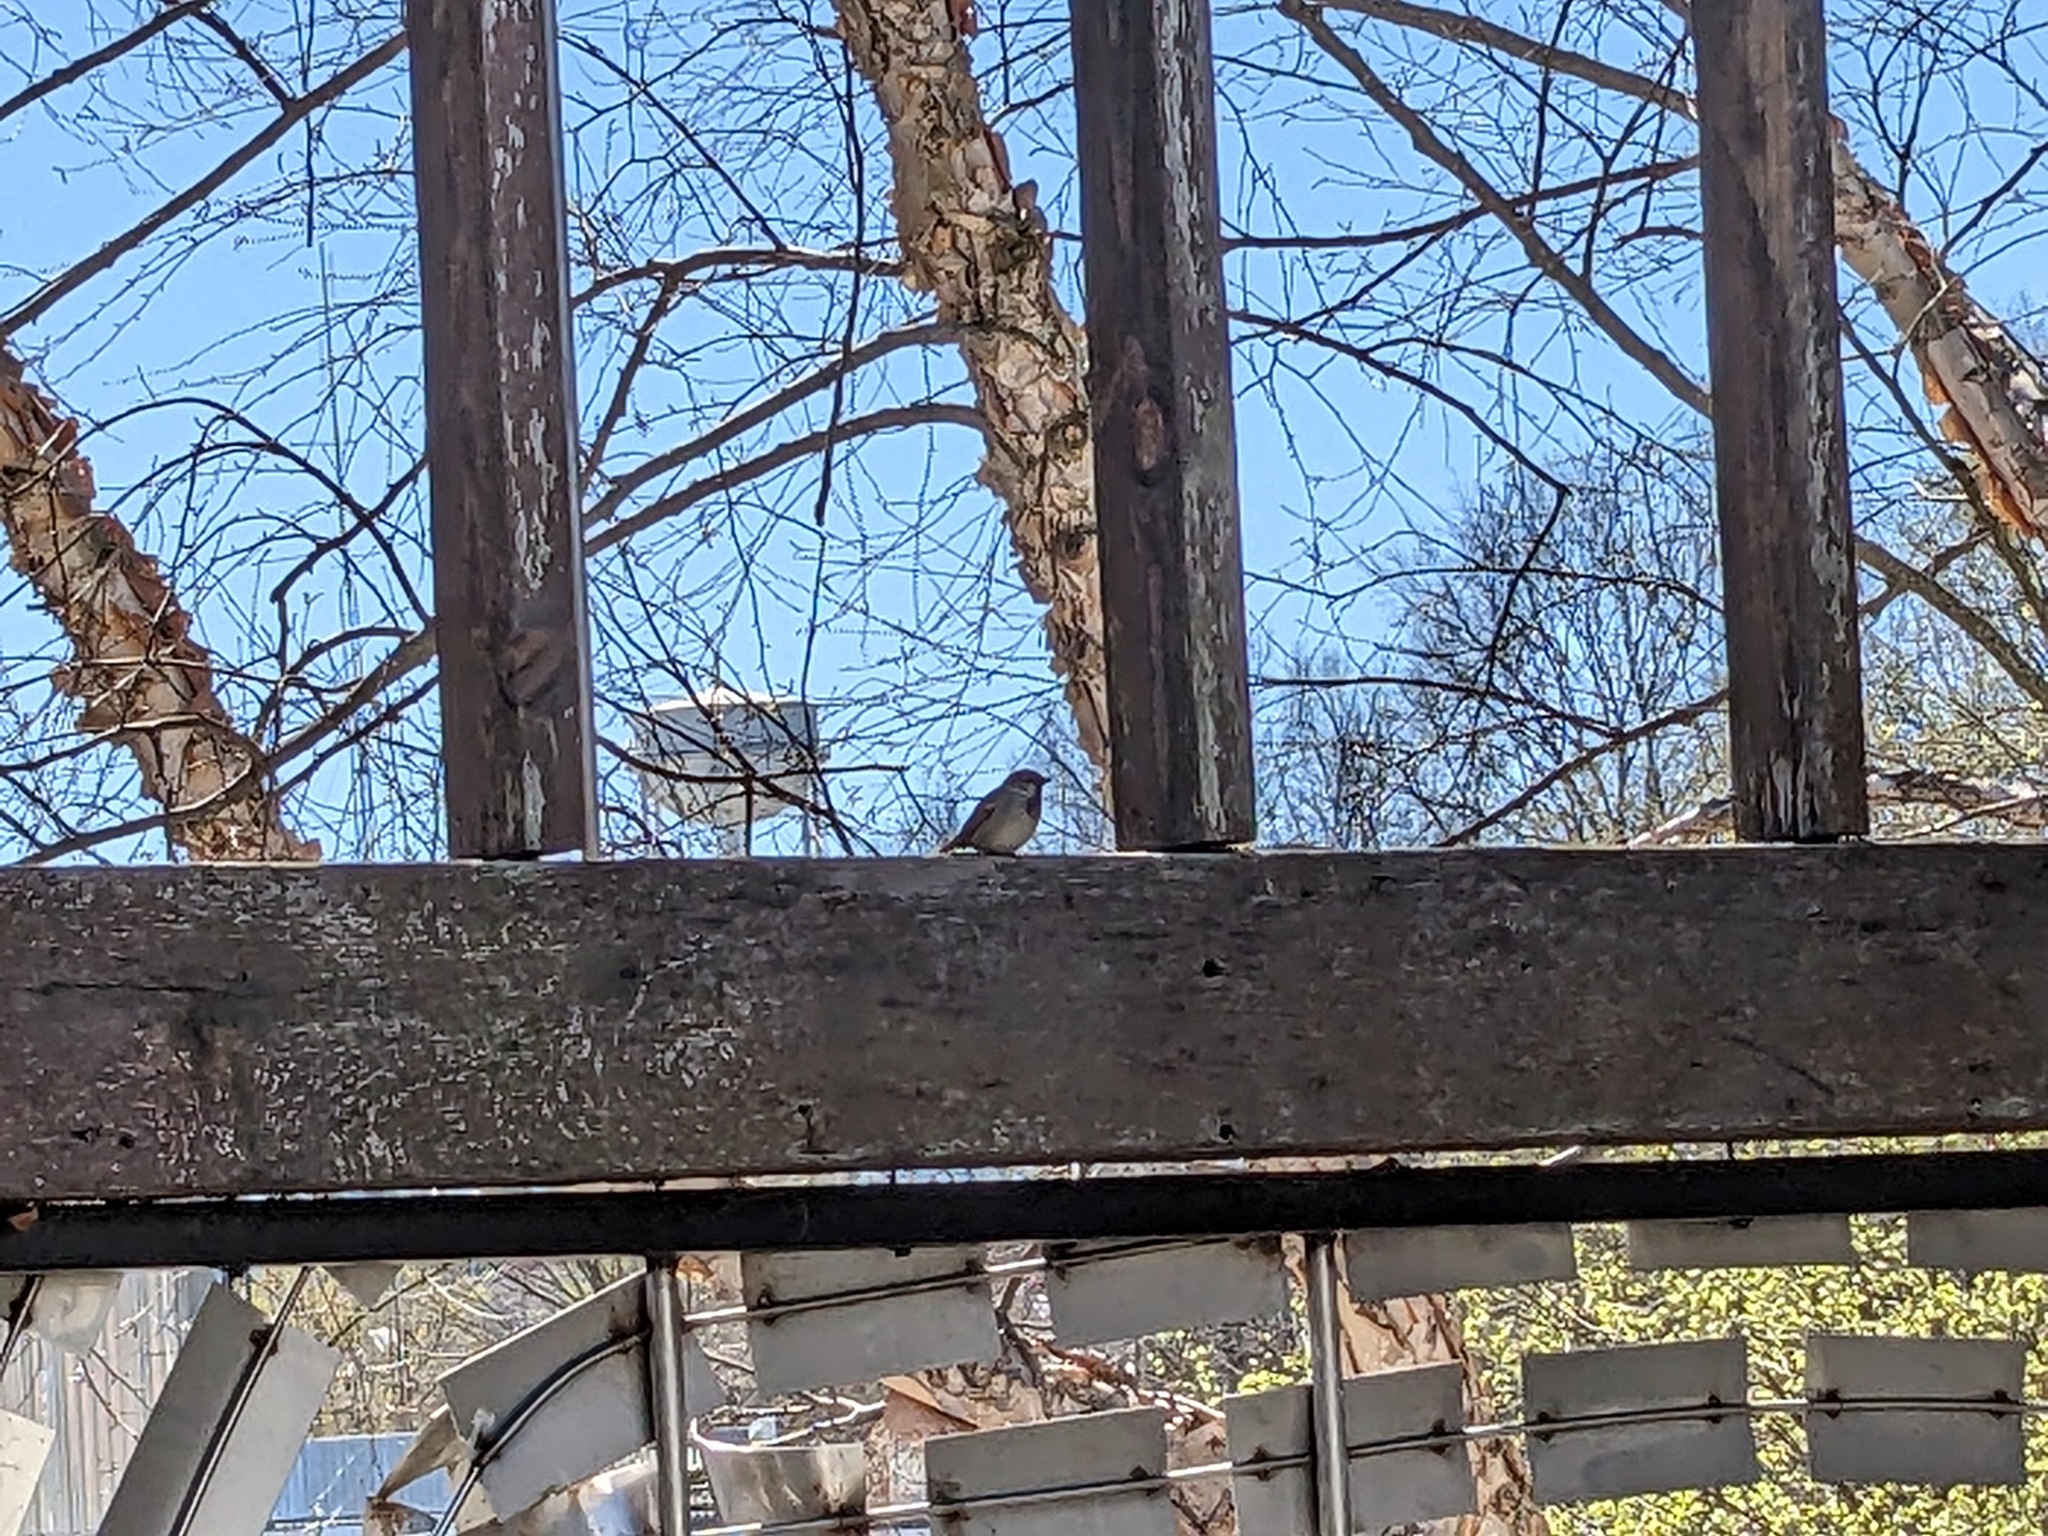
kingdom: Animalia
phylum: Chordata
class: Aves
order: Passeriformes
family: Passeridae
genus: Passer
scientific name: Passer domesticus
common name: House sparrow
